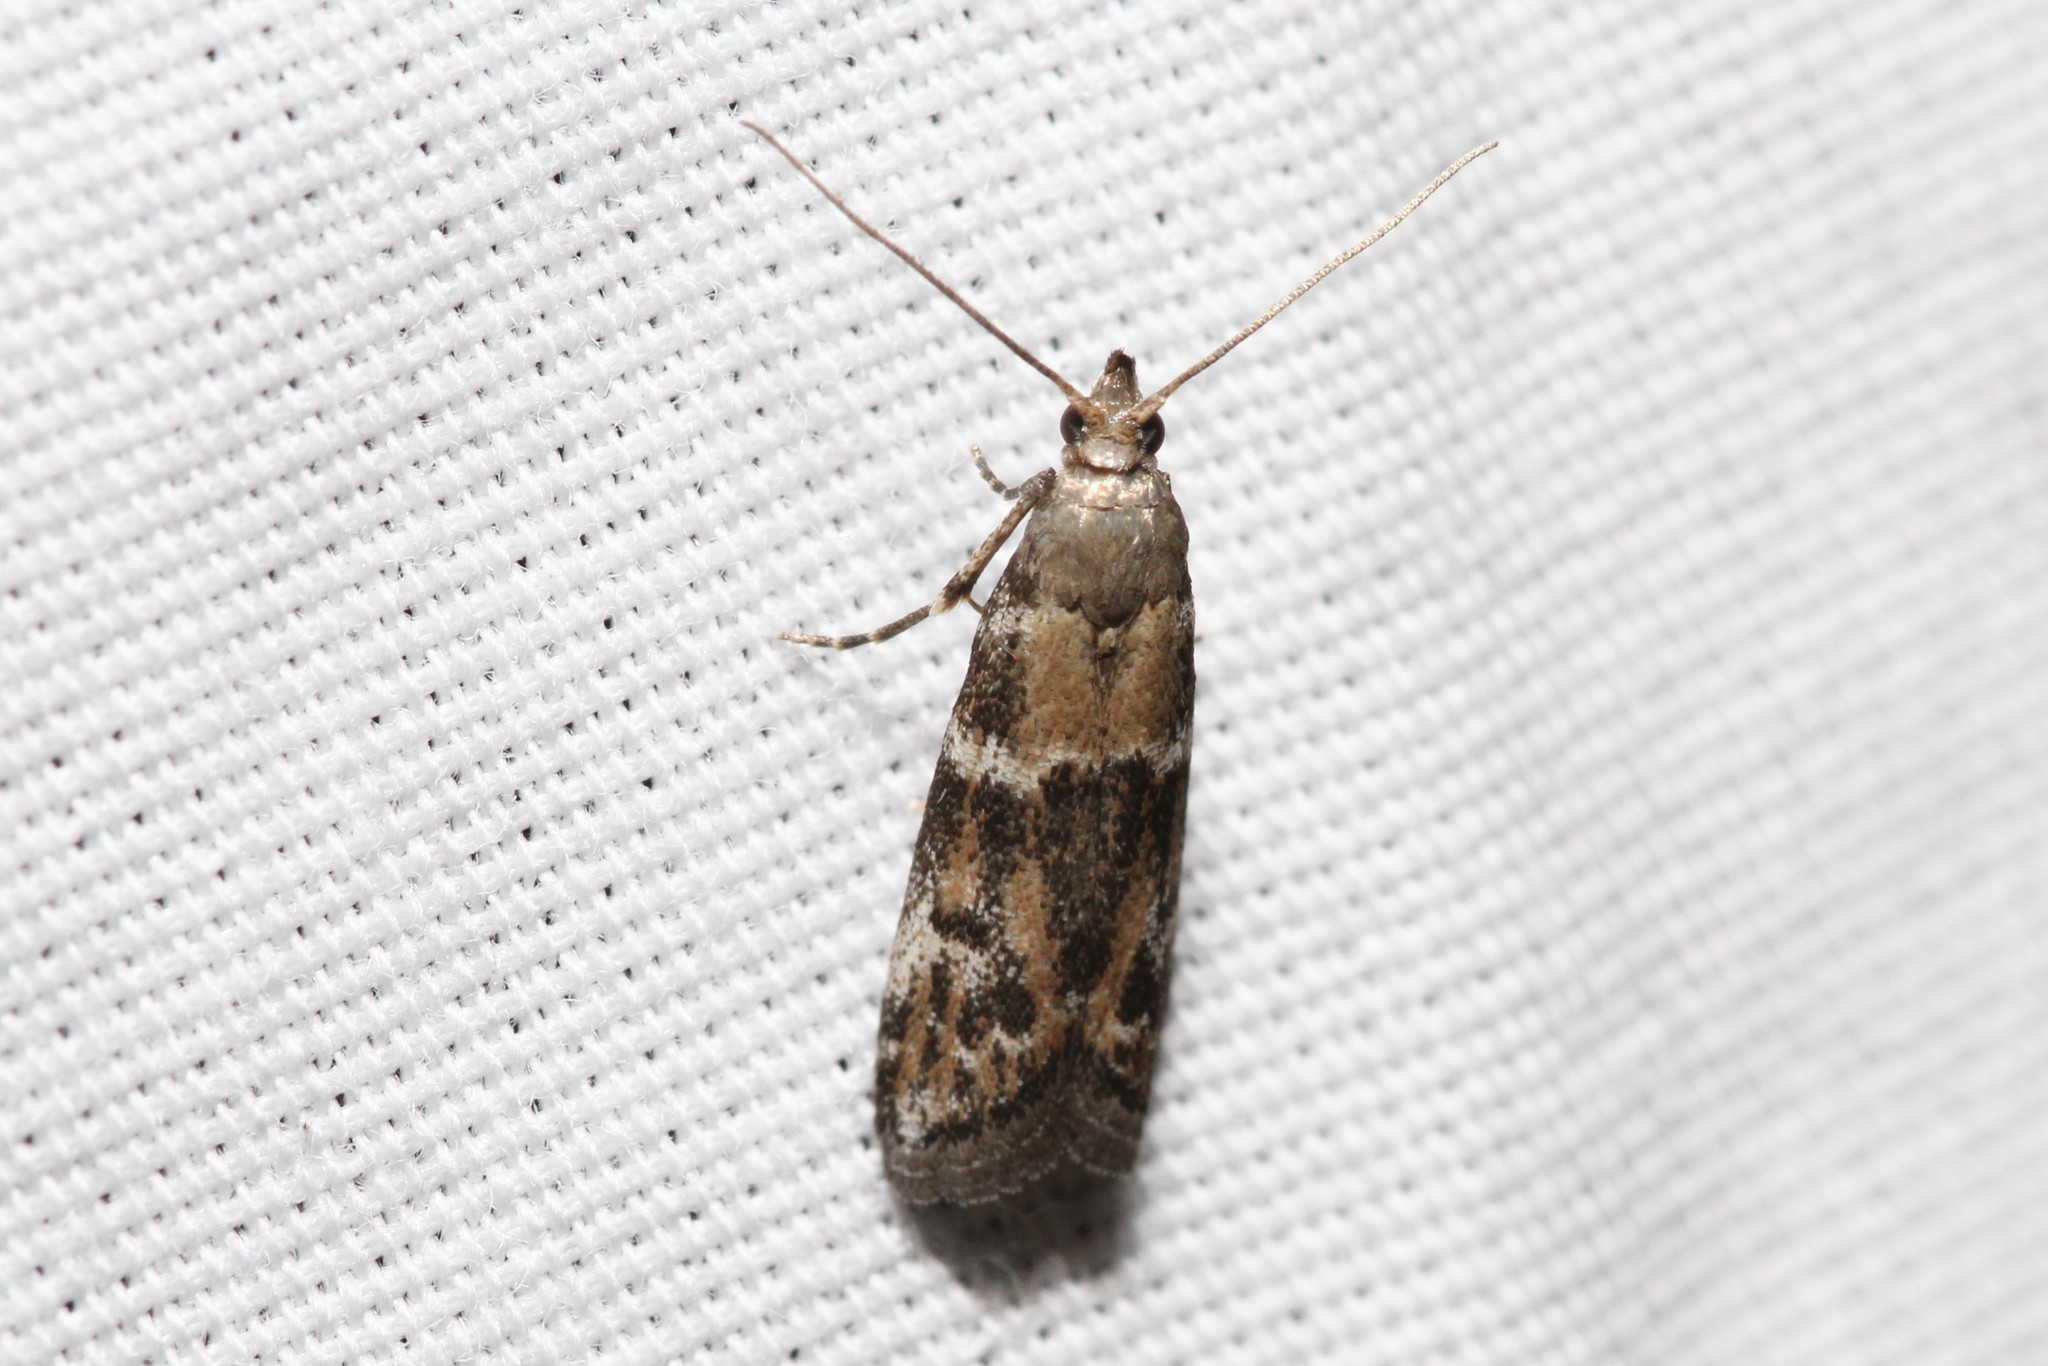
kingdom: Animalia
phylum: Arthropoda
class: Insecta
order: Lepidoptera
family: Pyralidae
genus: Vitula
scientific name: Vitula broweri
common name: Brower's vitula moth
